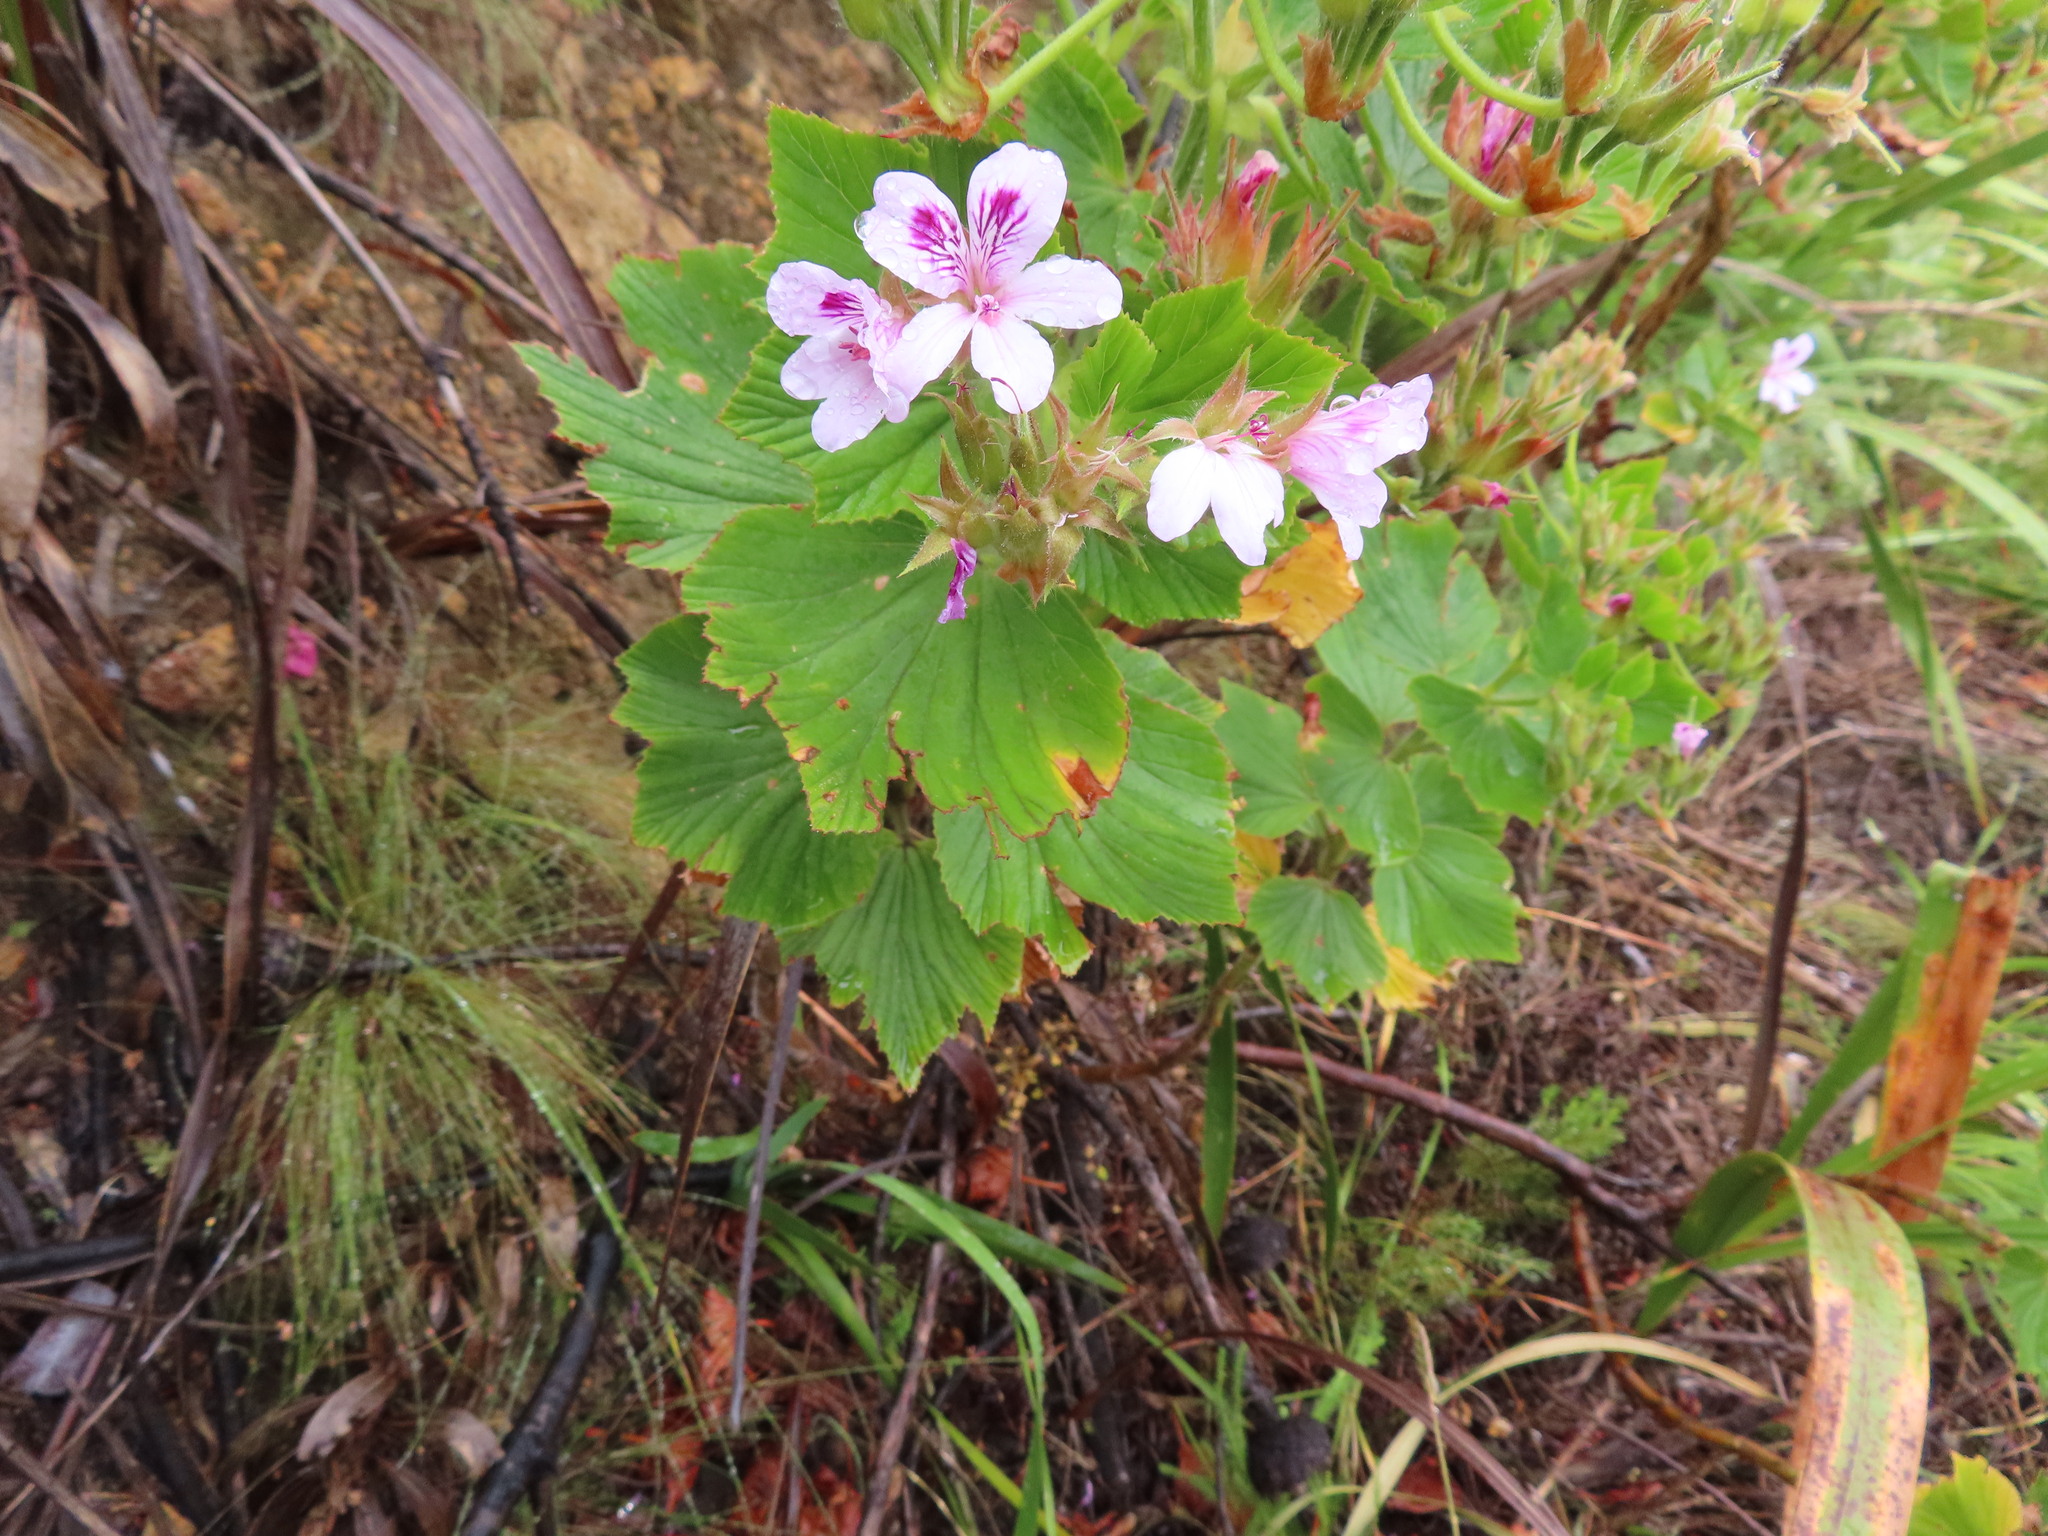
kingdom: Plantae
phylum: Tracheophyta
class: Magnoliopsida
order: Geraniales
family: Geraniaceae
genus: Pelargonium
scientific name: Pelargonium cucullatum
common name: Tree pelargonium
